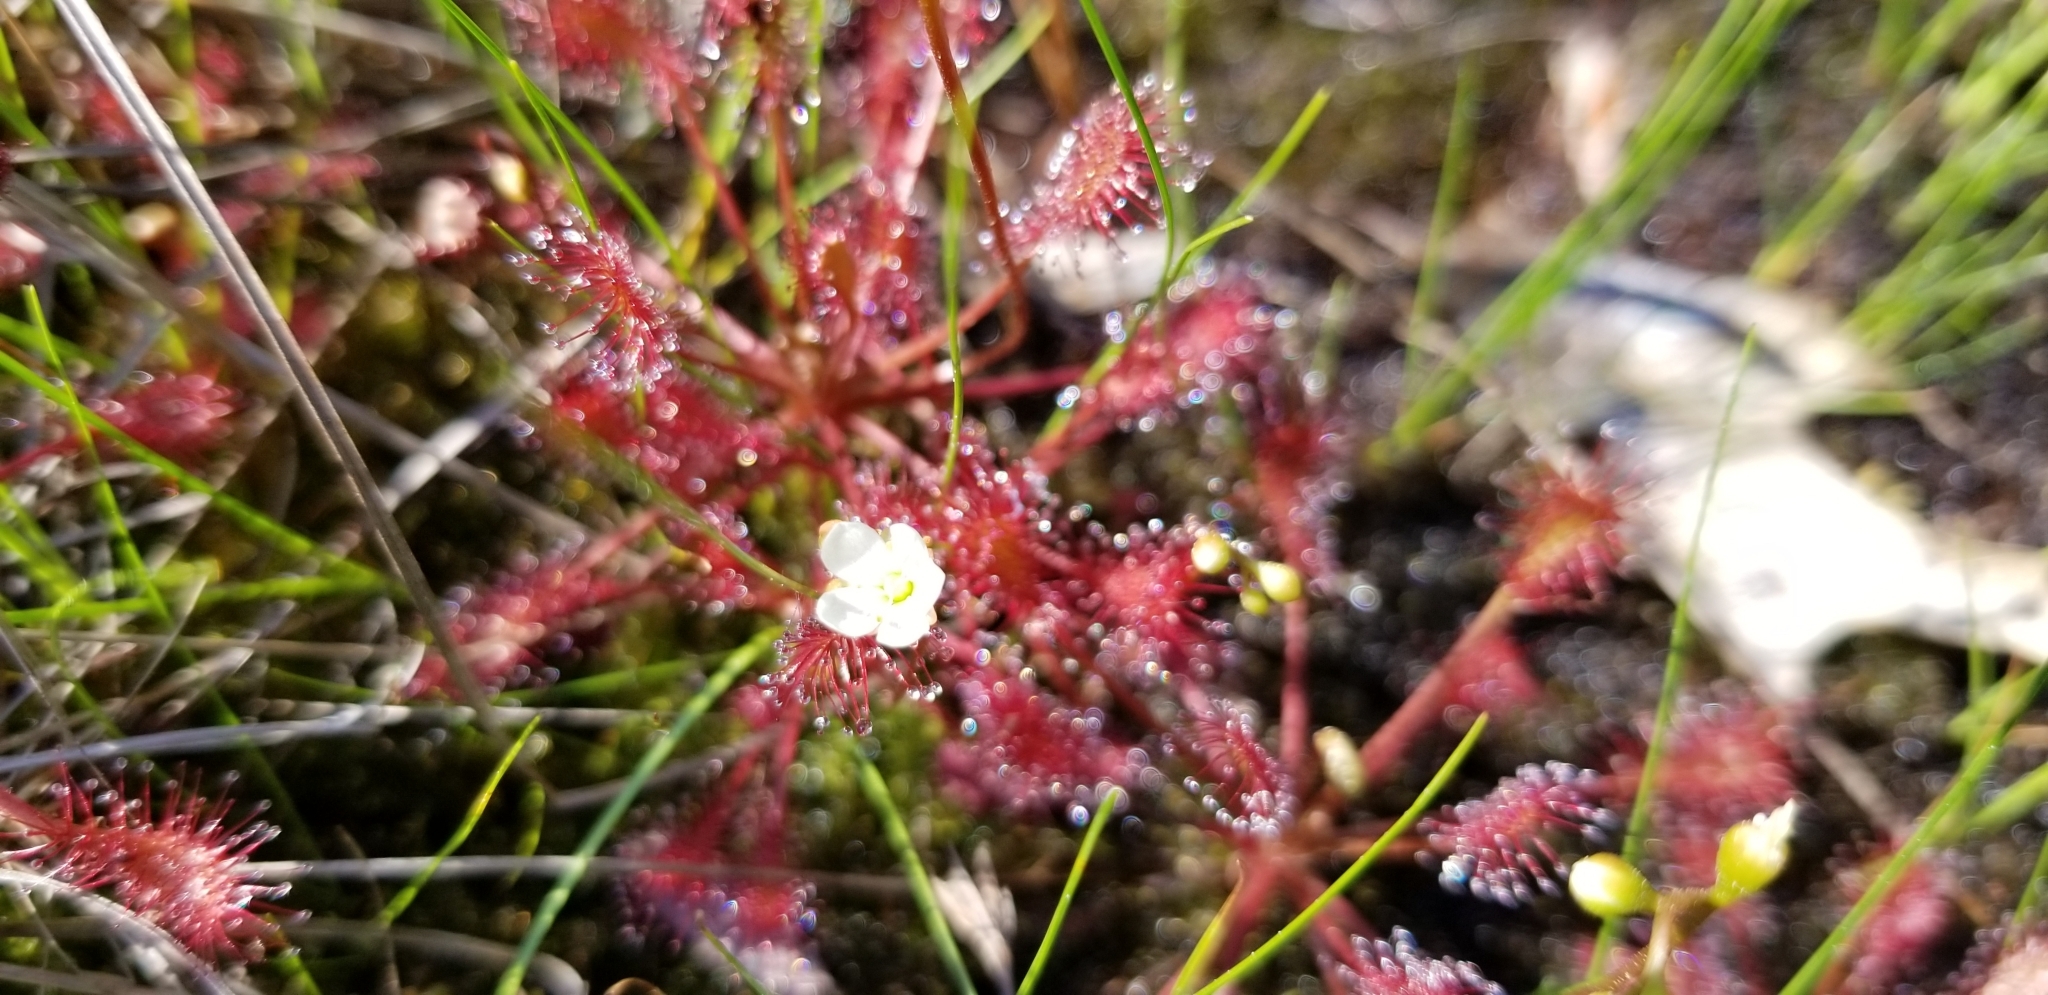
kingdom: Plantae
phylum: Tracheophyta
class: Magnoliopsida
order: Caryophyllales
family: Droseraceae
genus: Drosera
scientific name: Drosera intermedia
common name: Oblong-leaved sundew
